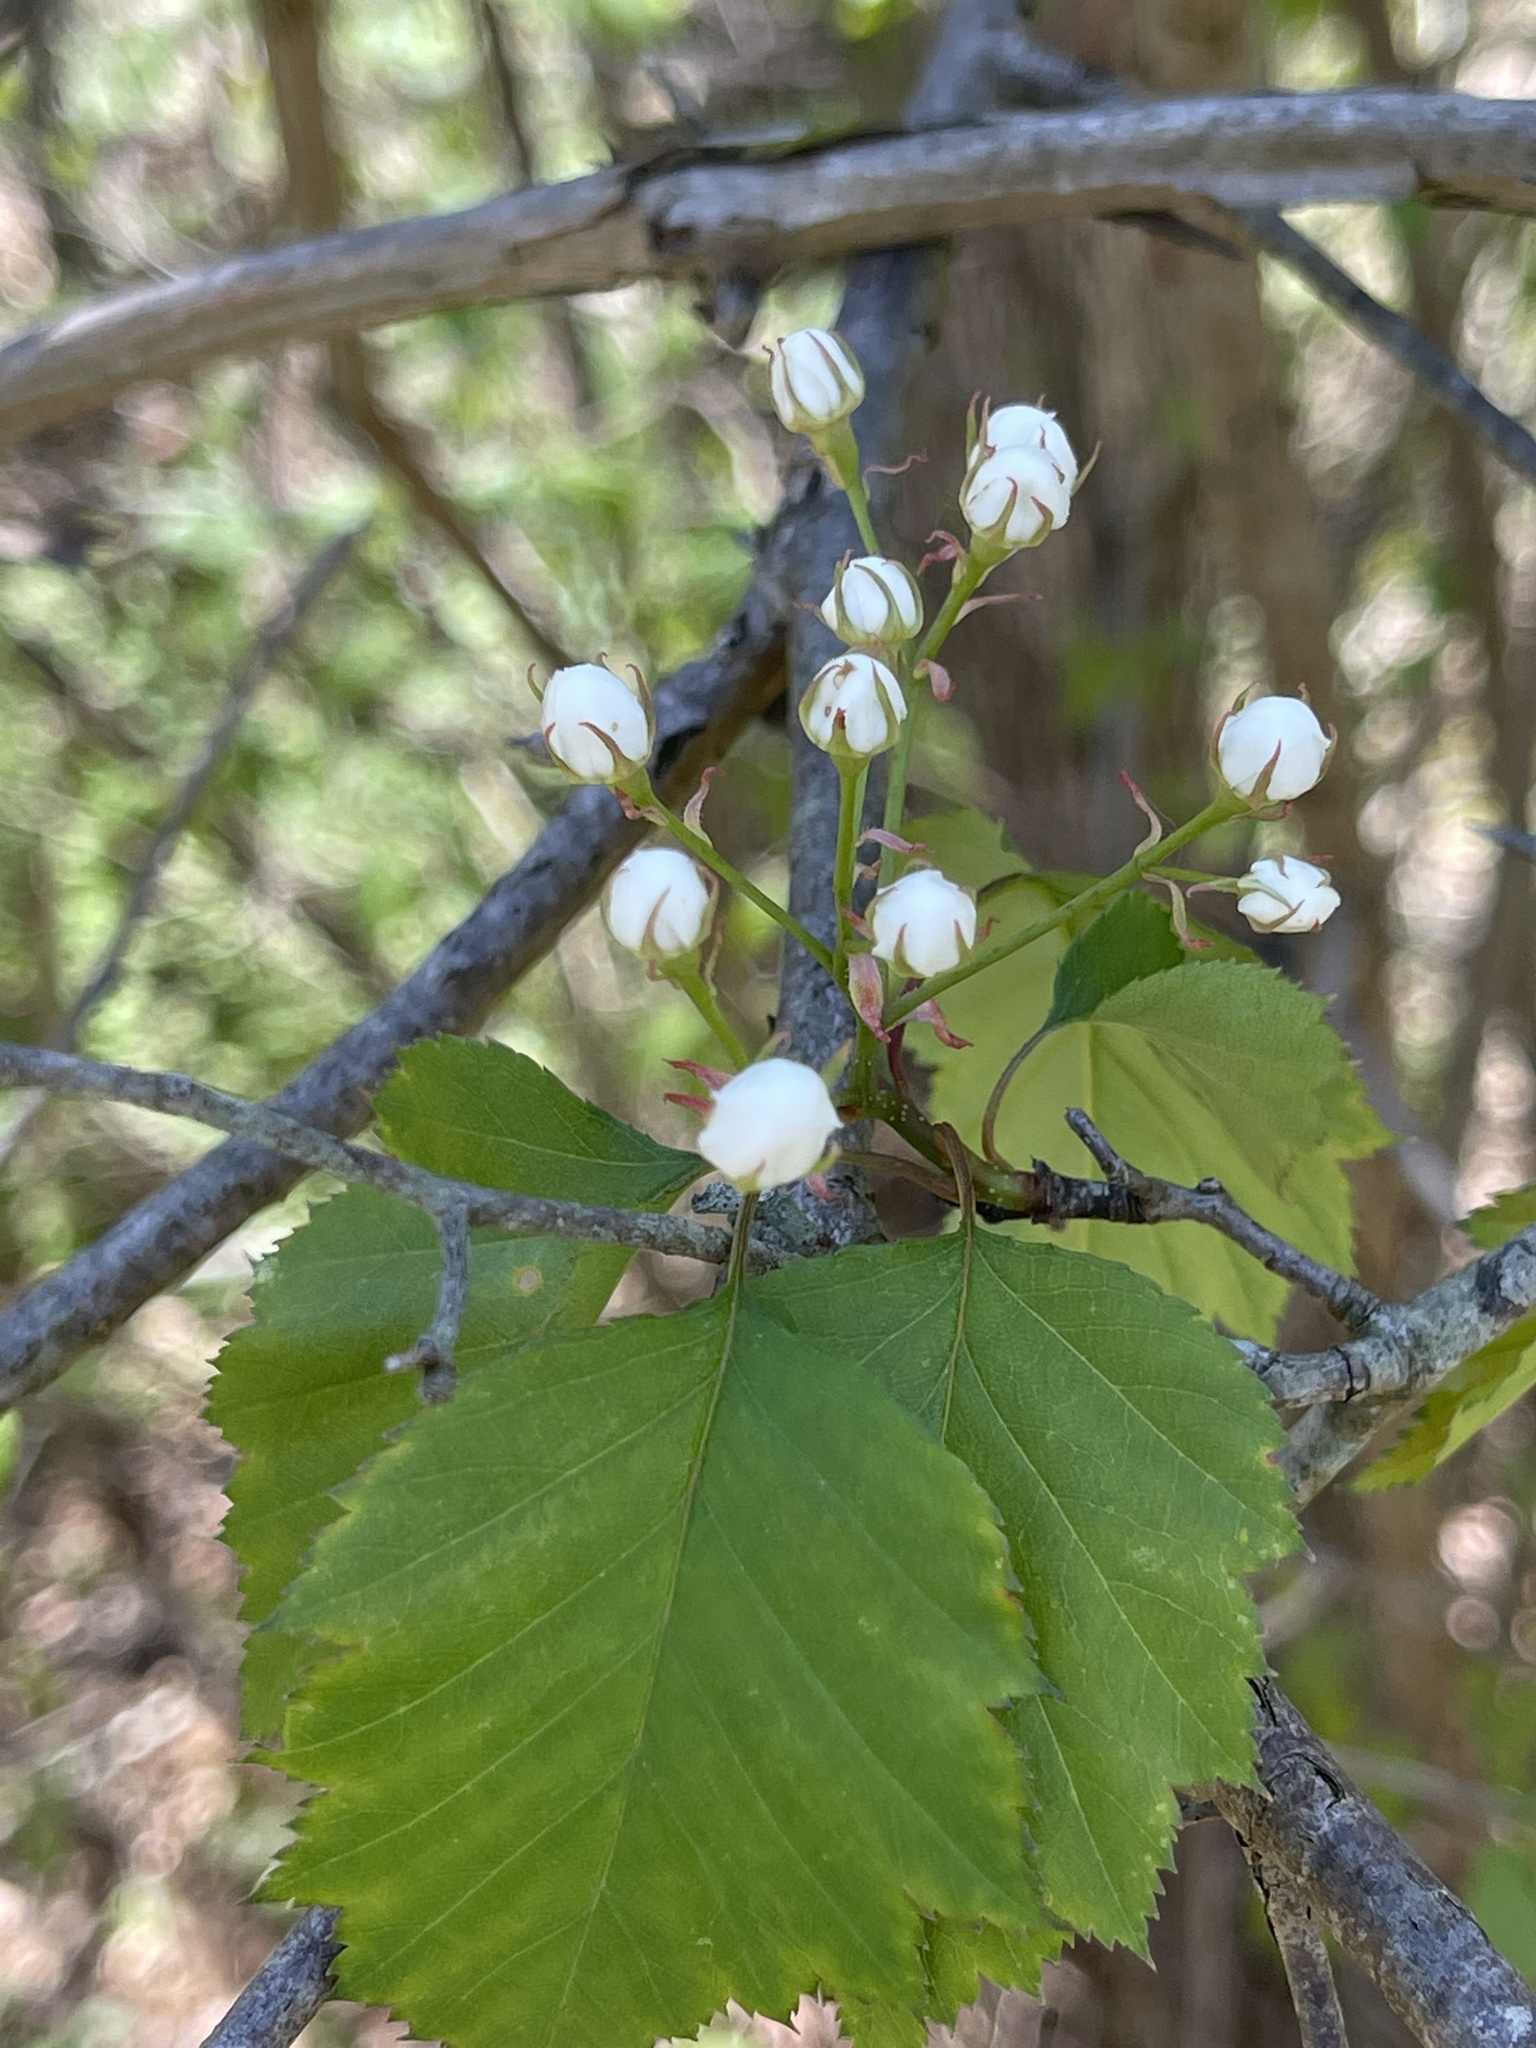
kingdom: Plantae
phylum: Tracheophyta
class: Magnoliopsida
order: Rosales
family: Rosaceae
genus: Crataegus
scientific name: Crataegus pruinosa
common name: Waxy-fruit hawthorn
